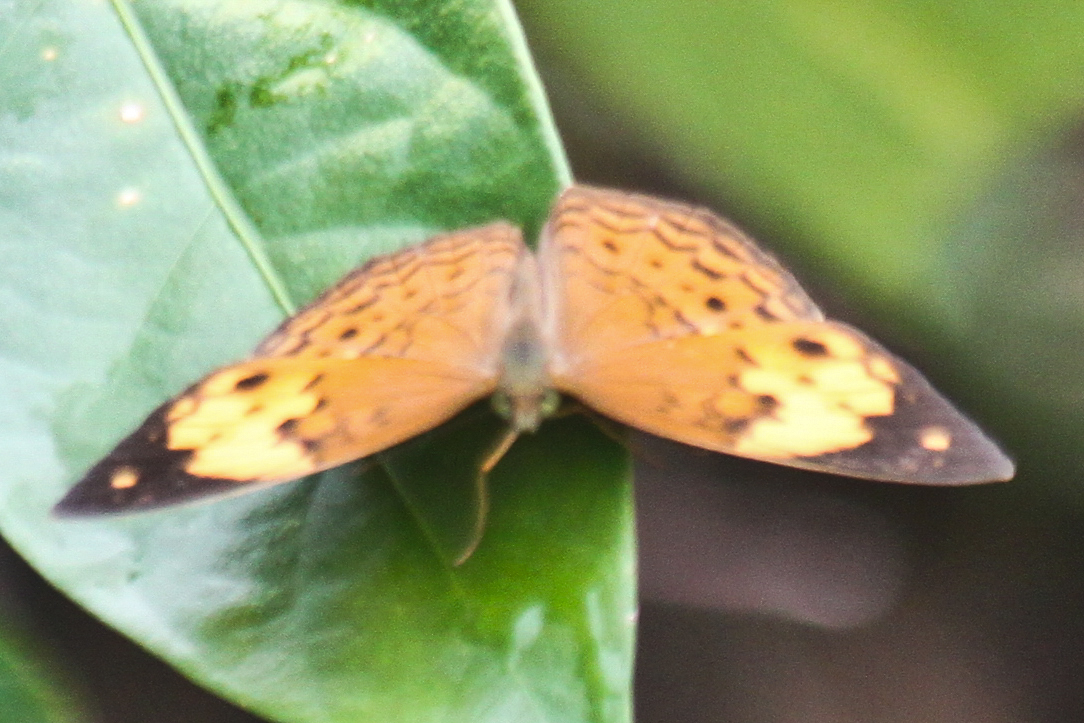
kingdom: Animalia
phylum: Arthropoda
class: Insecta
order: Lepidoptera
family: Nymphalidae
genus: Cupha
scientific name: Cupha erymanthis
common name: Rustic
